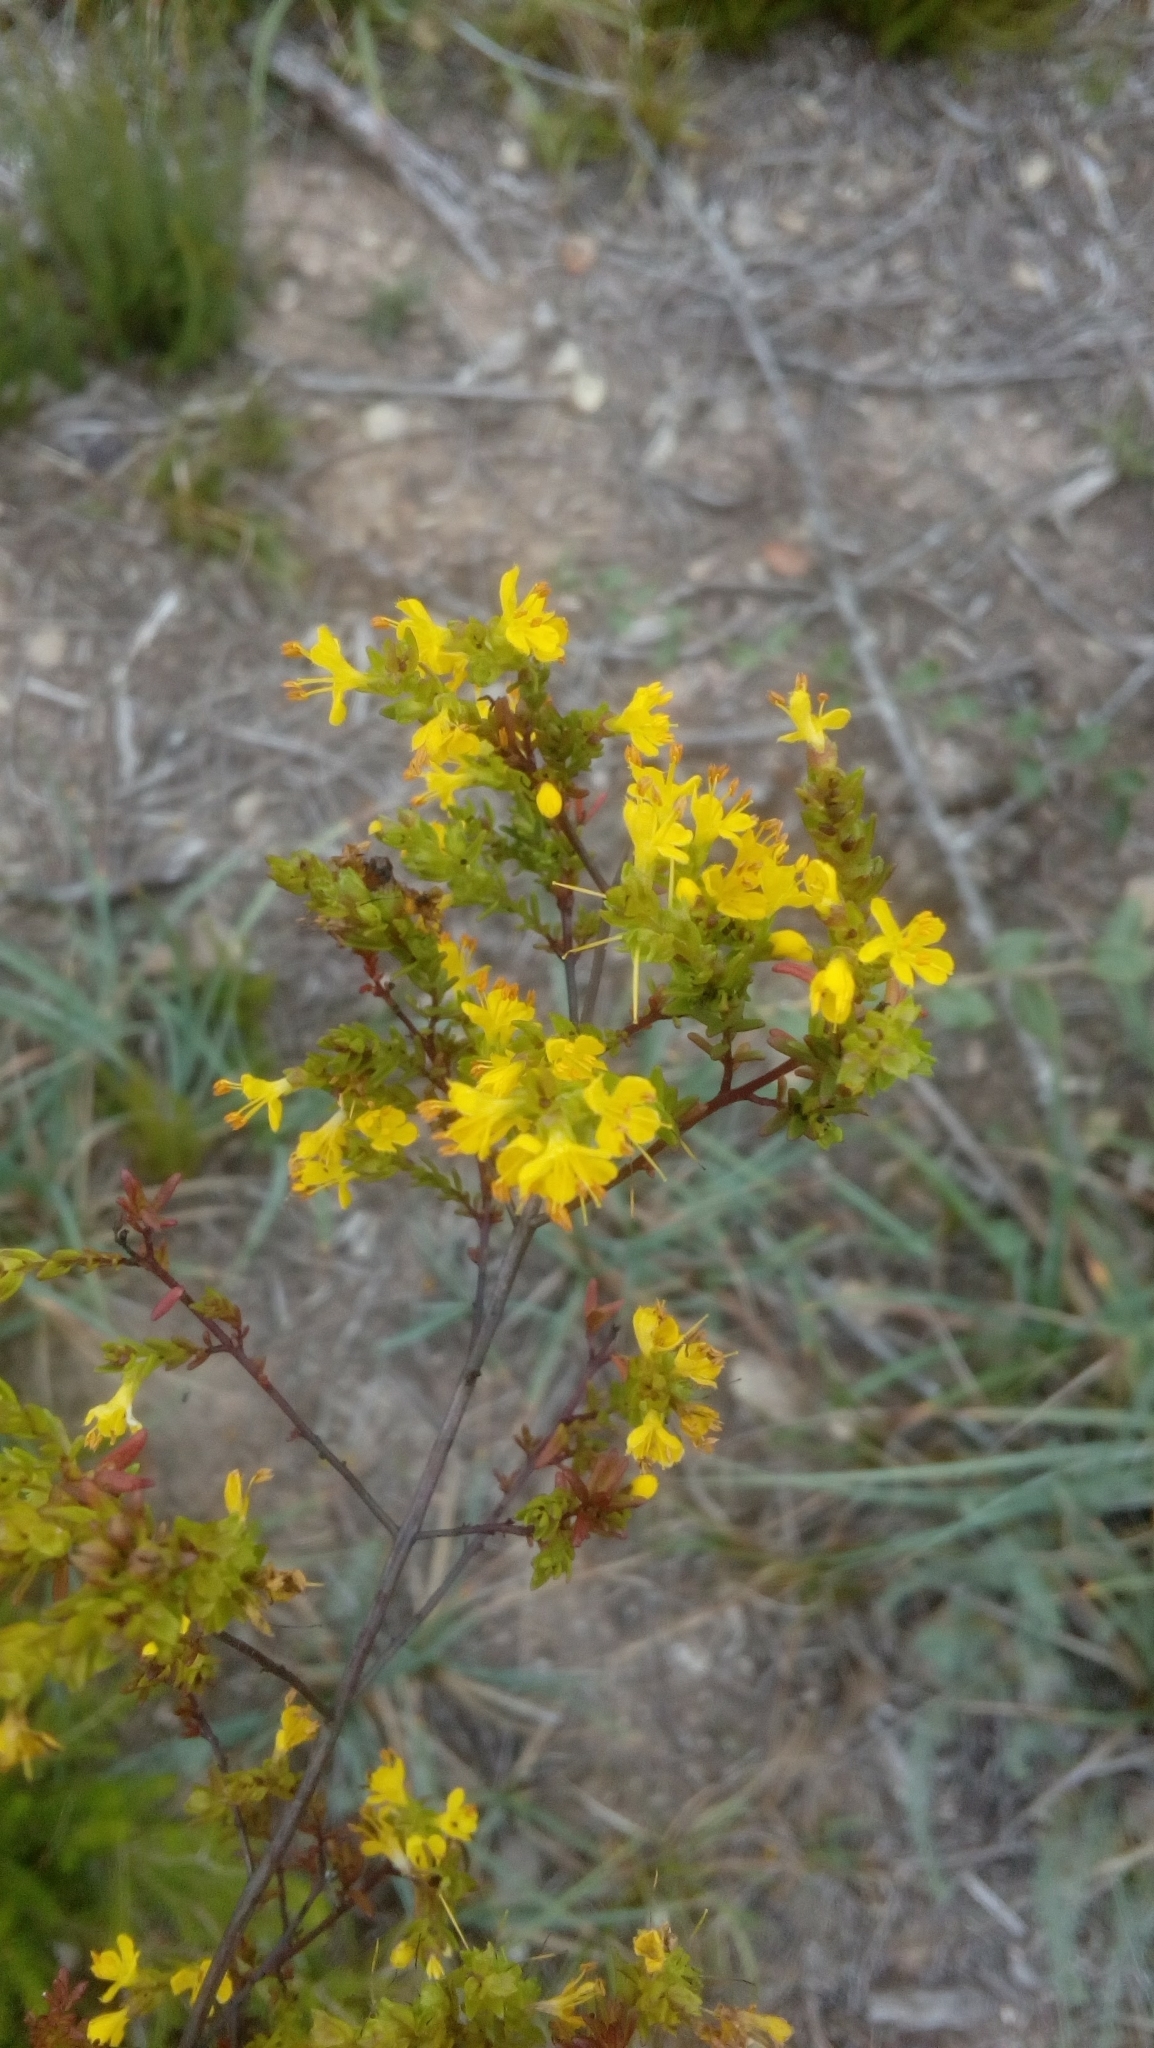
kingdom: Plantae
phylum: Tracheophyta
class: Magnoliopsida
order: Lamiales
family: Orobanchaceae
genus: Odontites
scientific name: Odontites luteus
